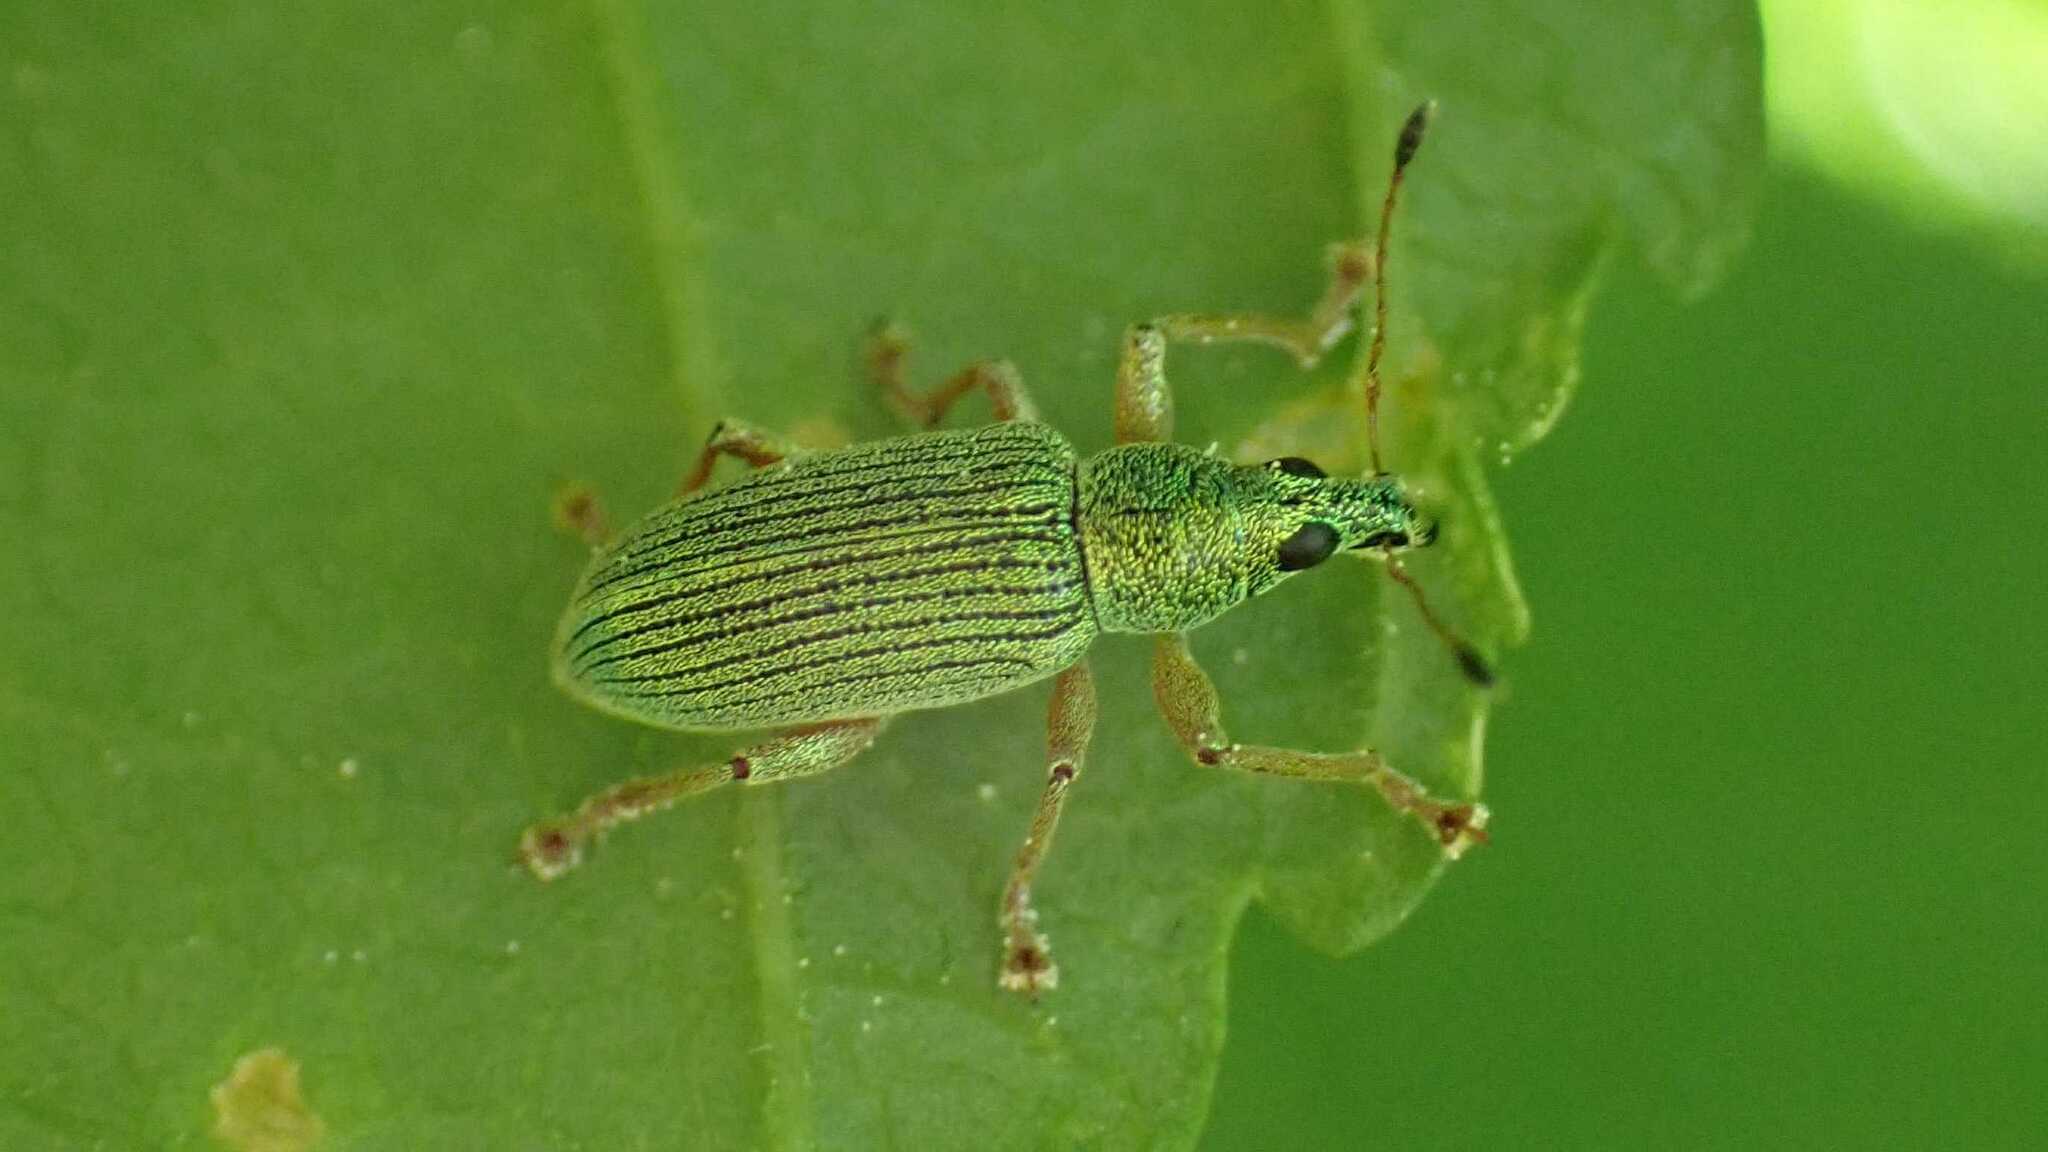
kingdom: Animalia
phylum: Arthropoda
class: Insecta
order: Coleoptera
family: Curculionidae
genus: Polydrusus
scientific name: Polydrusus formosus
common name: Weevil
